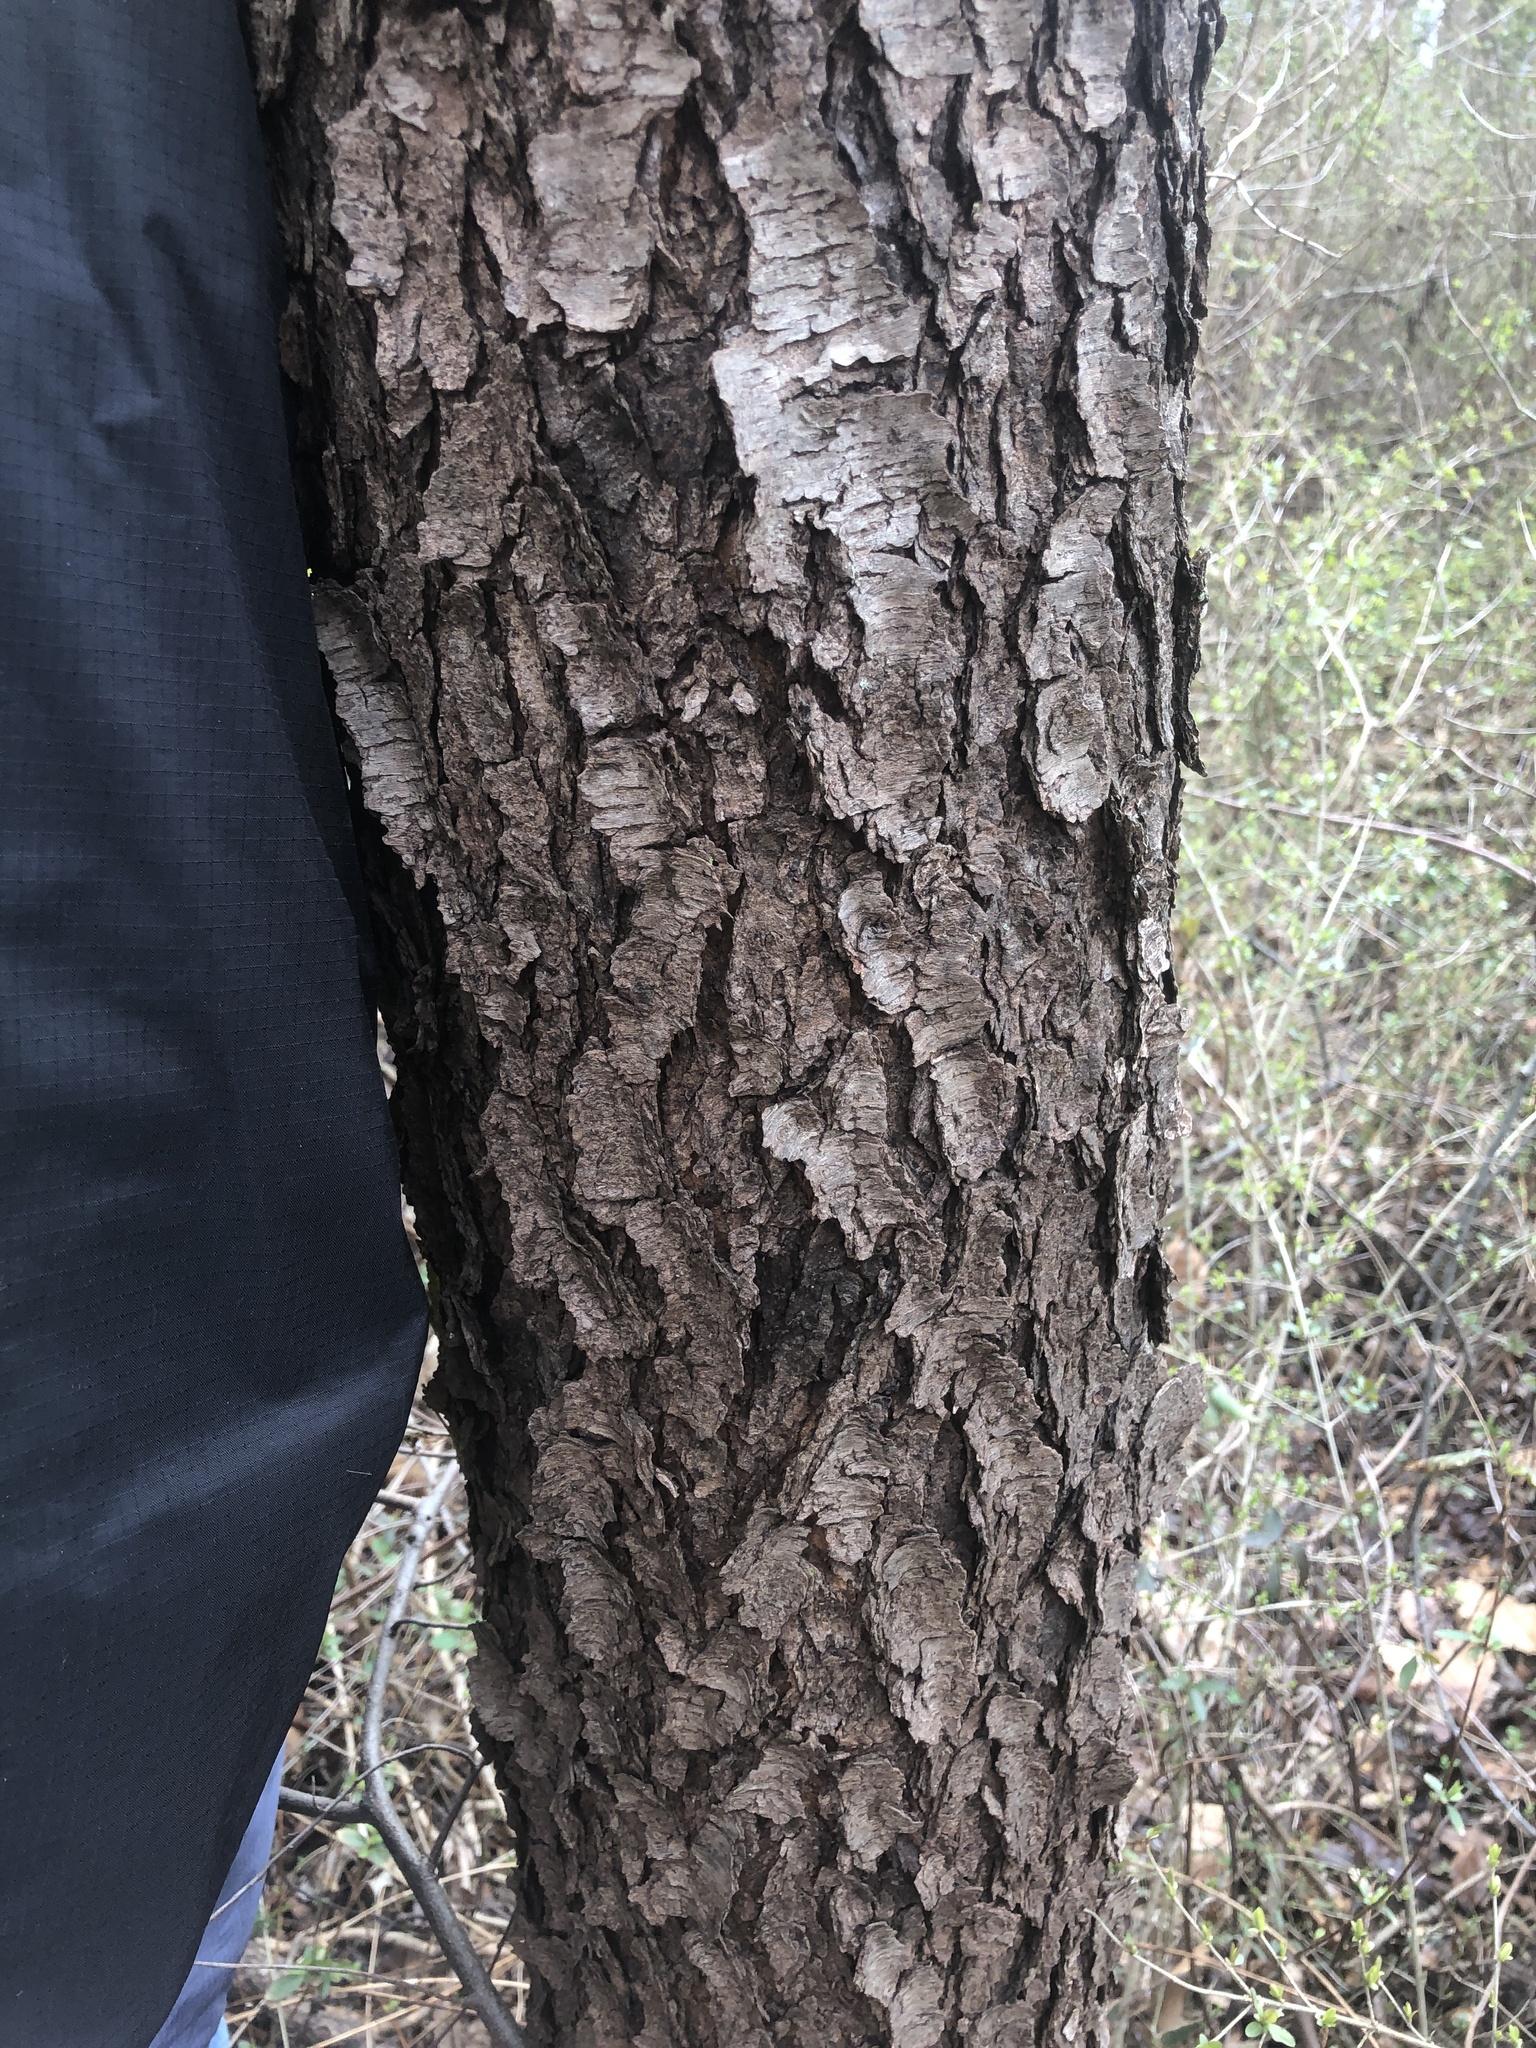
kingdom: Plantae
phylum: Tracheophyta
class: Magnoliopsida
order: Rosales
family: Rosaceae
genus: Prunus
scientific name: Prunus serotina
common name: Black cherry
